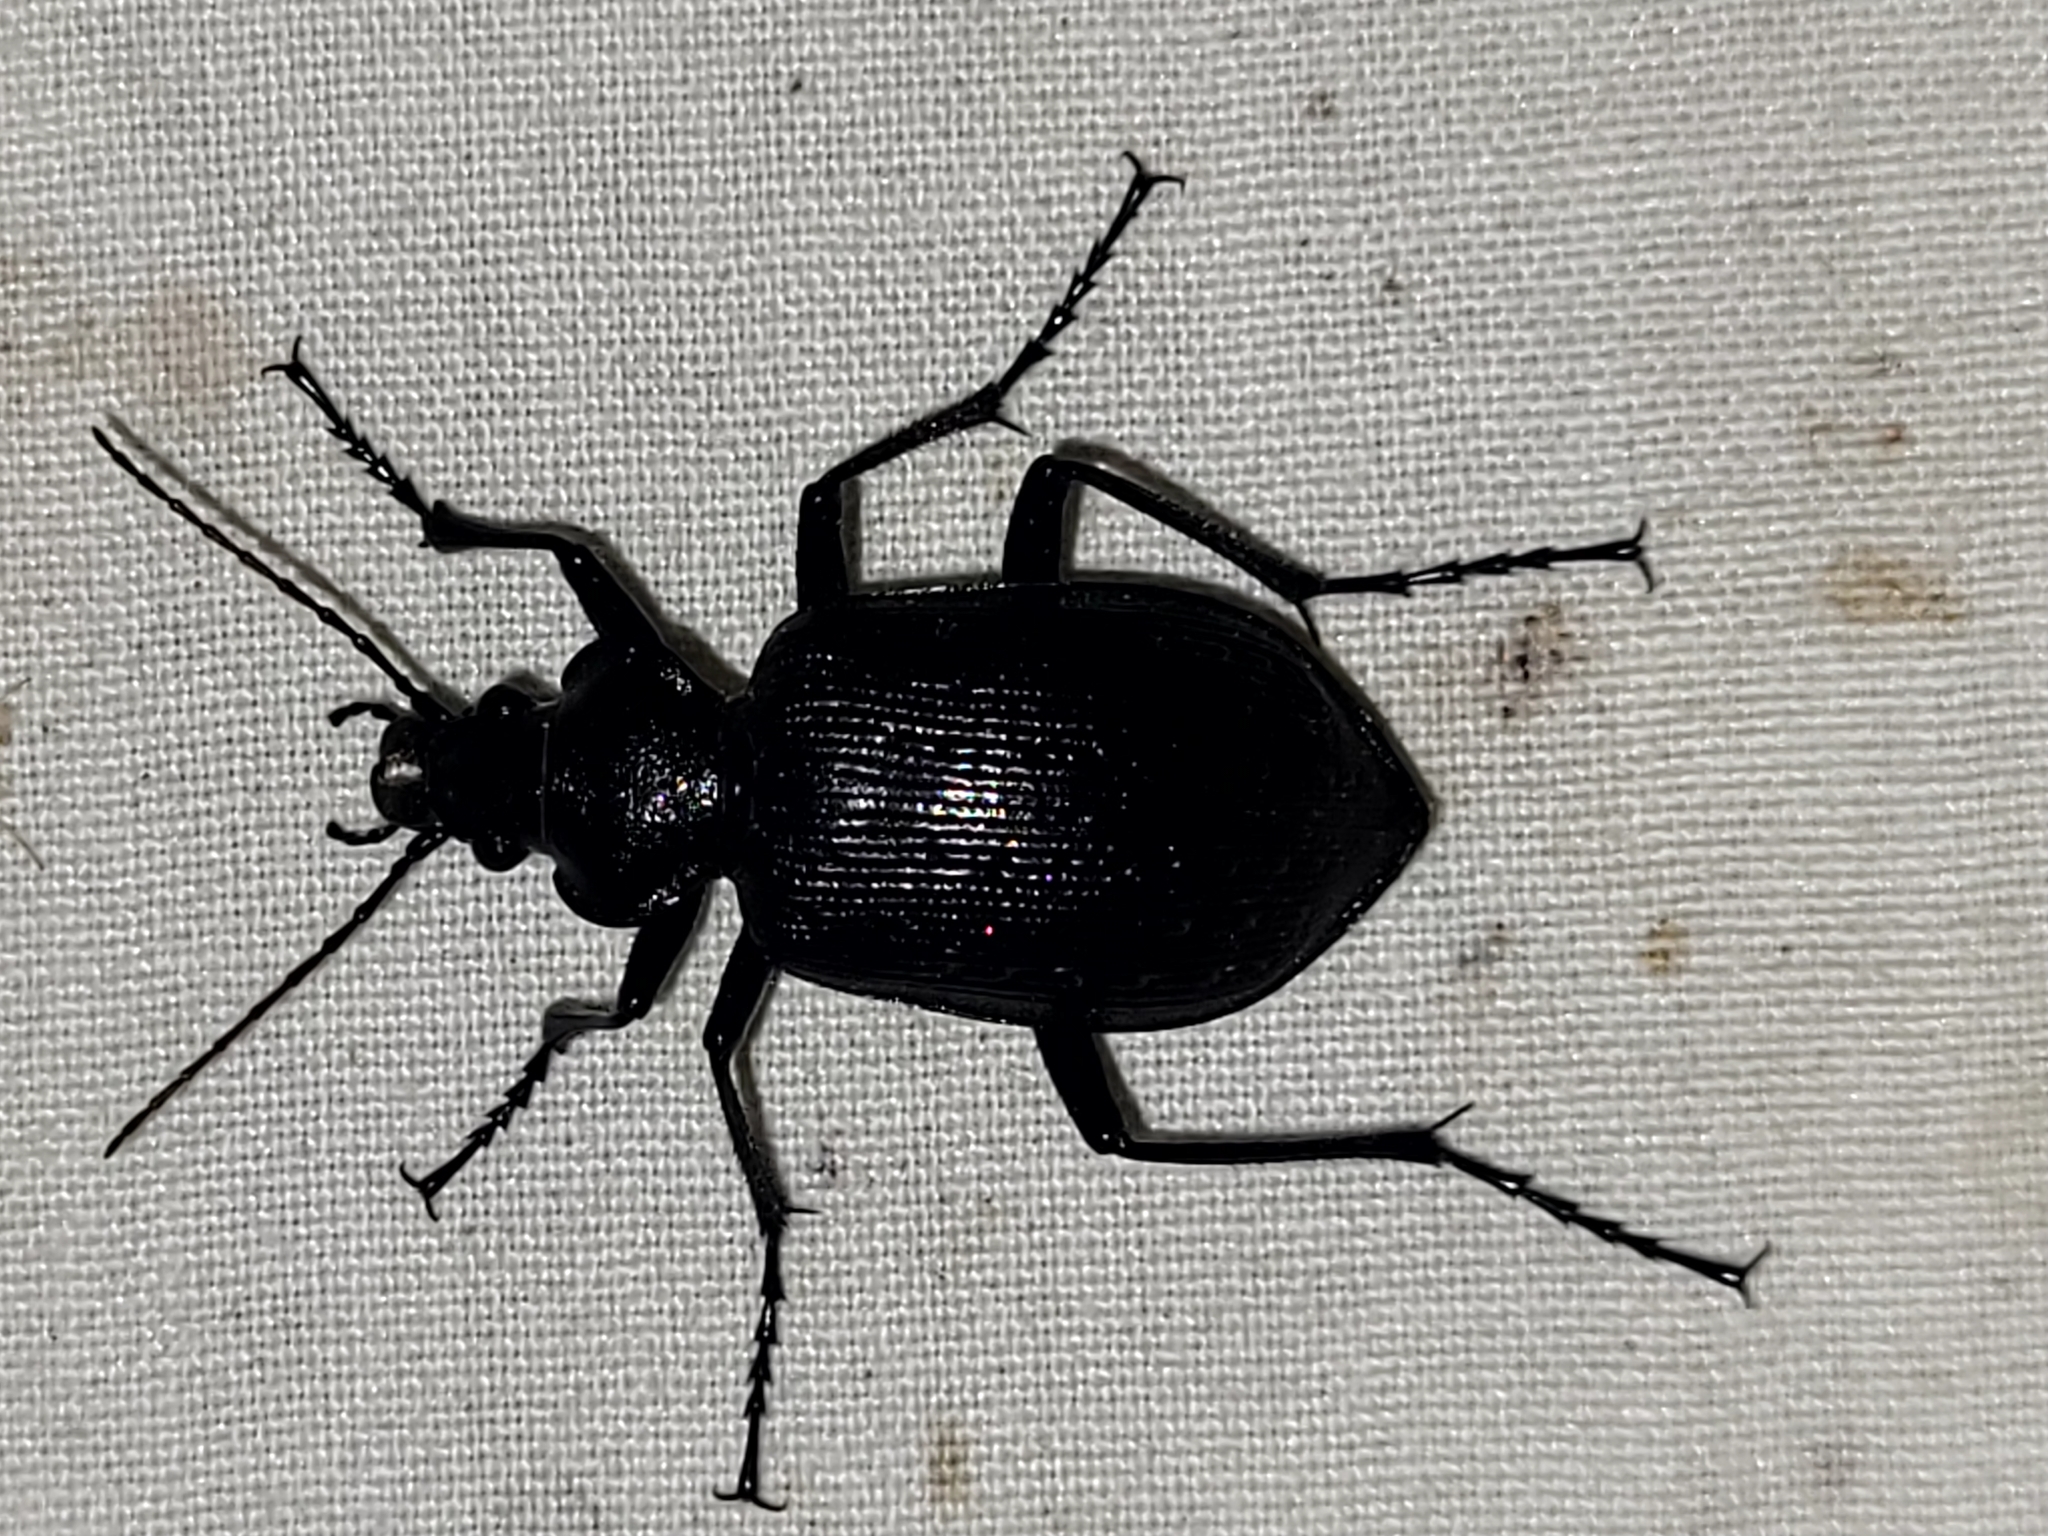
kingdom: Animalia
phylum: Arthropoda
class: Insecta
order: Coleoptera
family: Carabidae
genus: Calosoma
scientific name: Calosoma frigidum
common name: Cold-country caterpillar hunter
